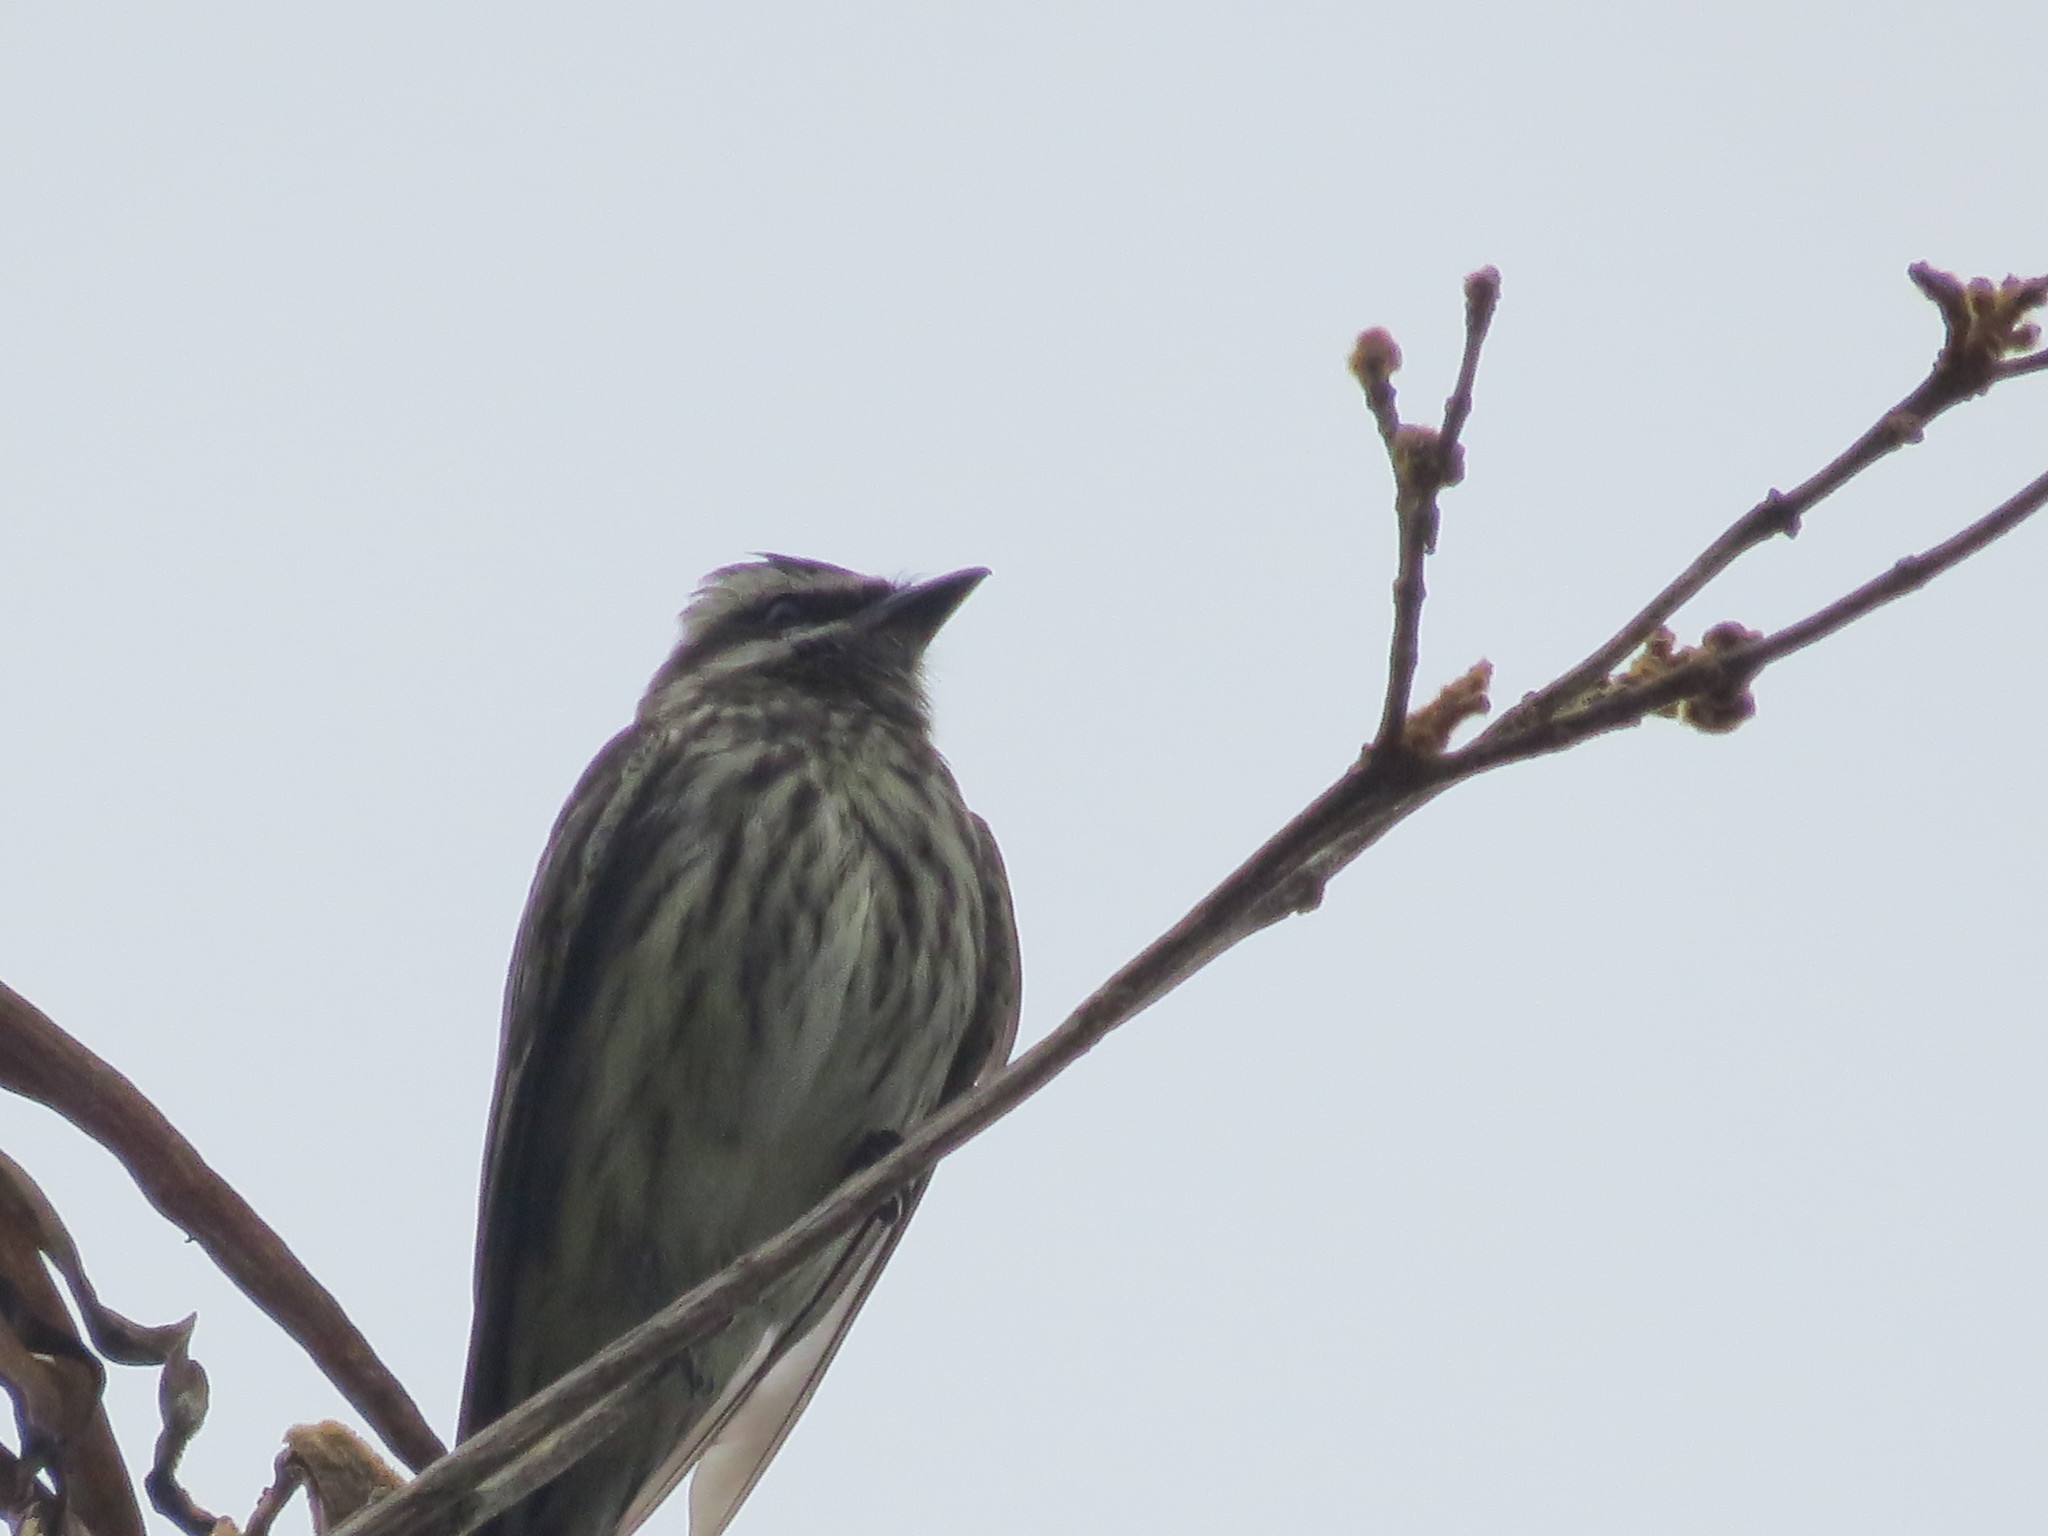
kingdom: Animalia
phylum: Chordata
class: Aves
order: Passeriformes
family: Tyrannidae
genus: Empidonomus
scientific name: Empidonomus varius
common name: Variegated flycatcher
